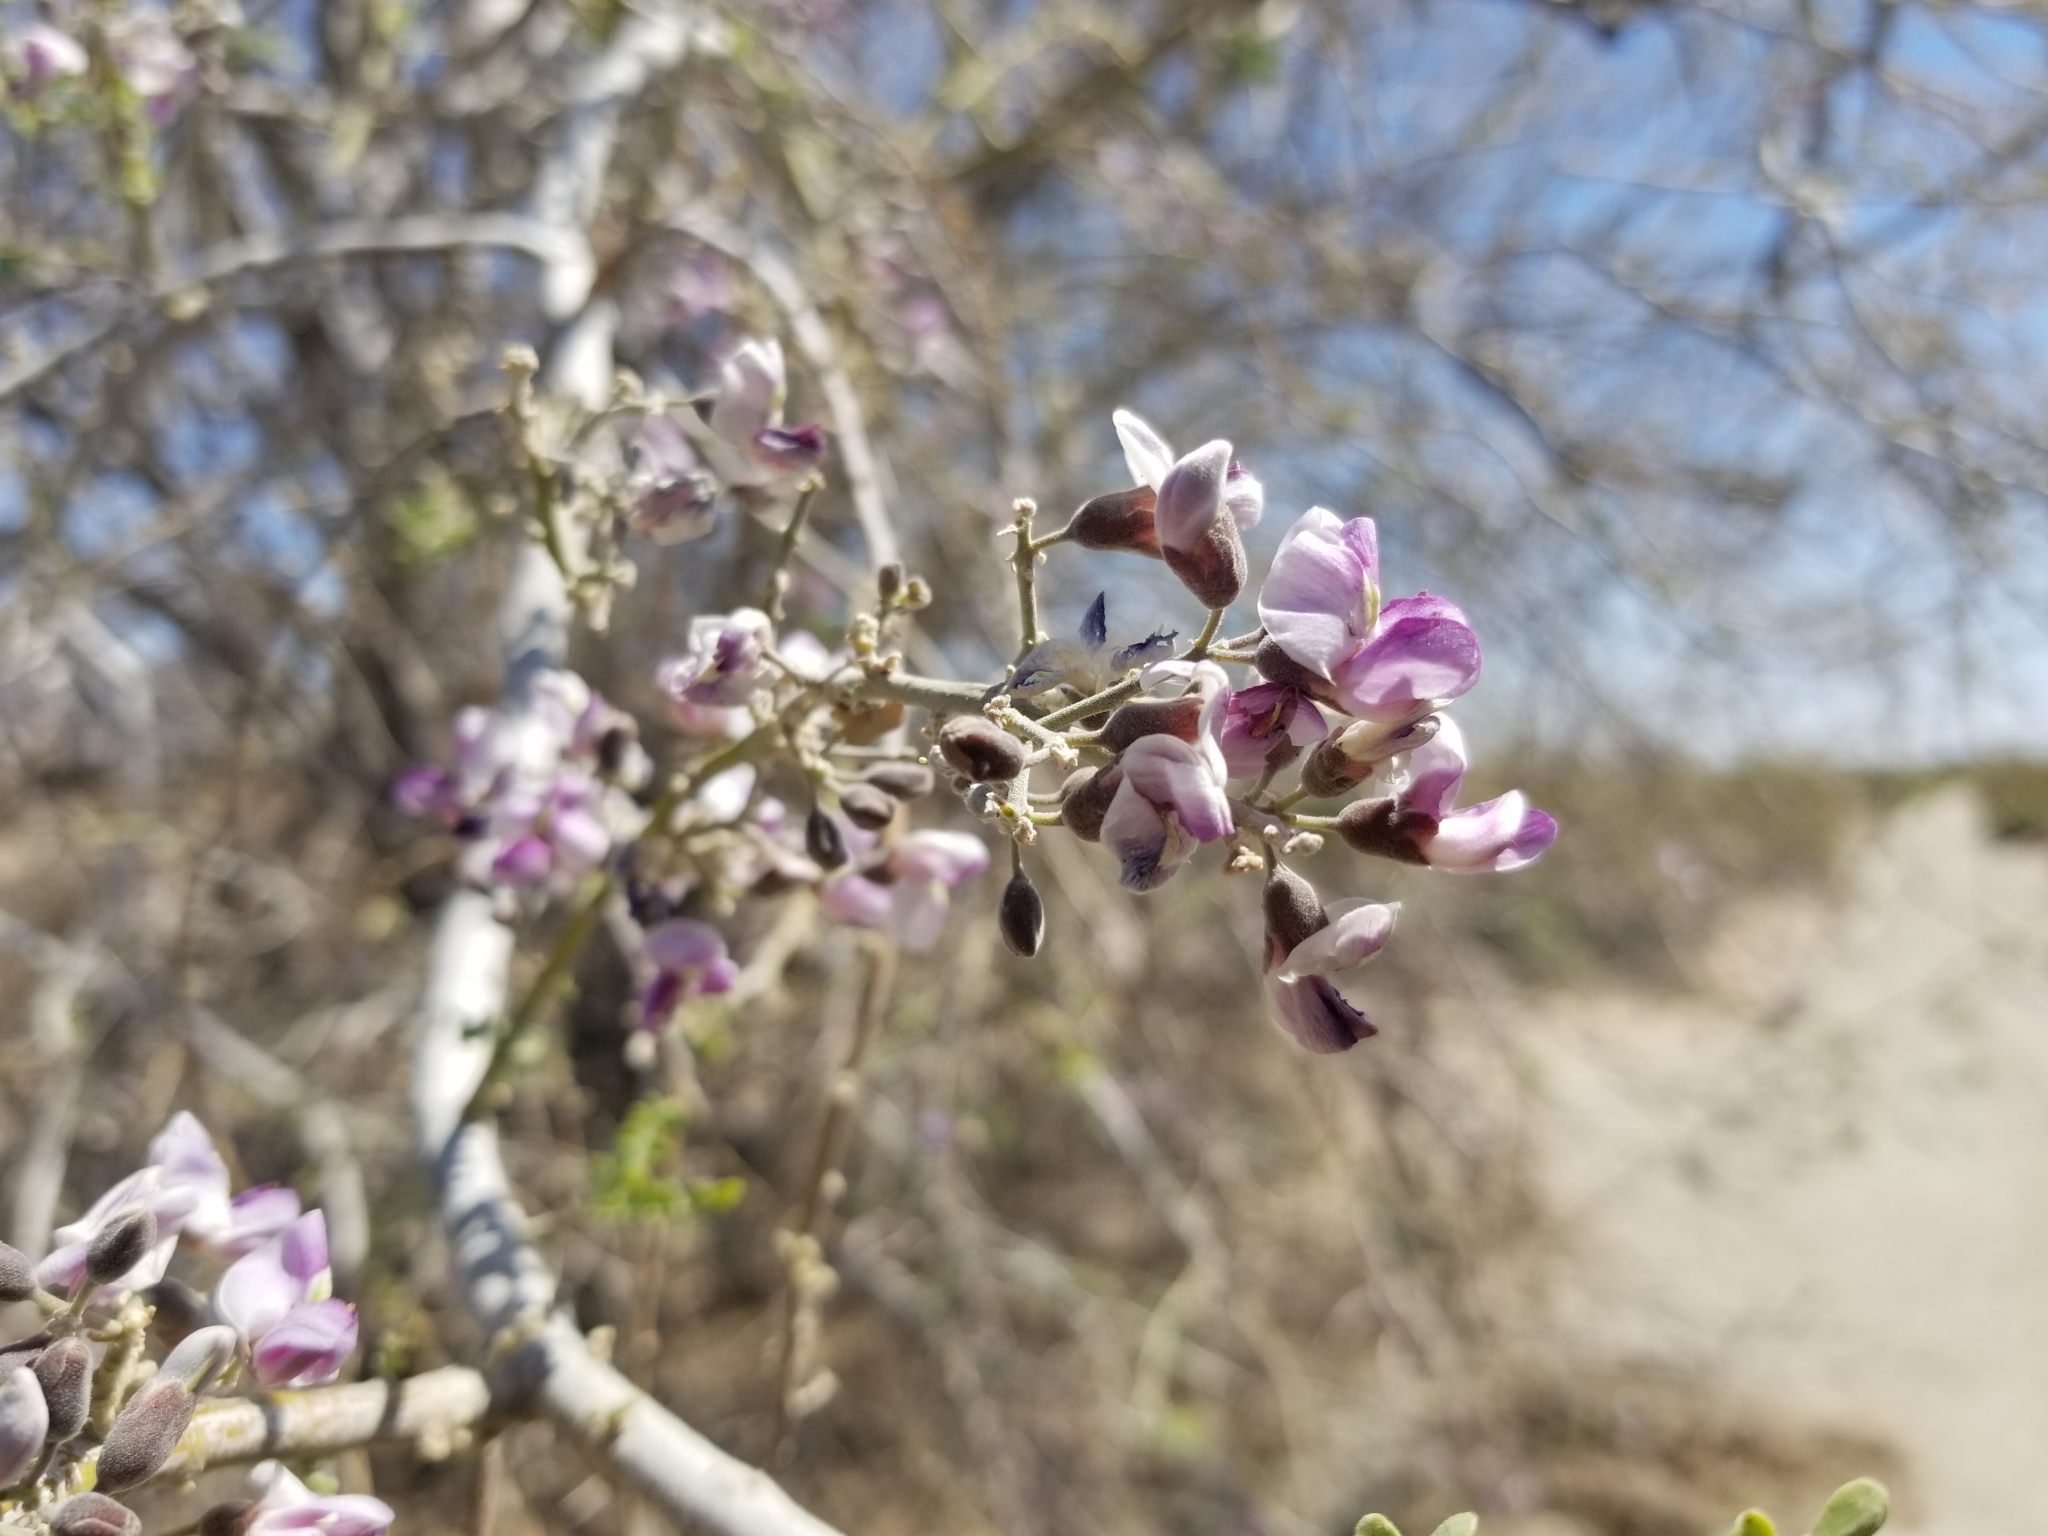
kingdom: Plantae
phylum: Tracheophyta
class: Magnoliopsida
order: Fabales
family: Fabaceae
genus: Olneya
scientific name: Olneya tesota
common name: Desert ironwood
